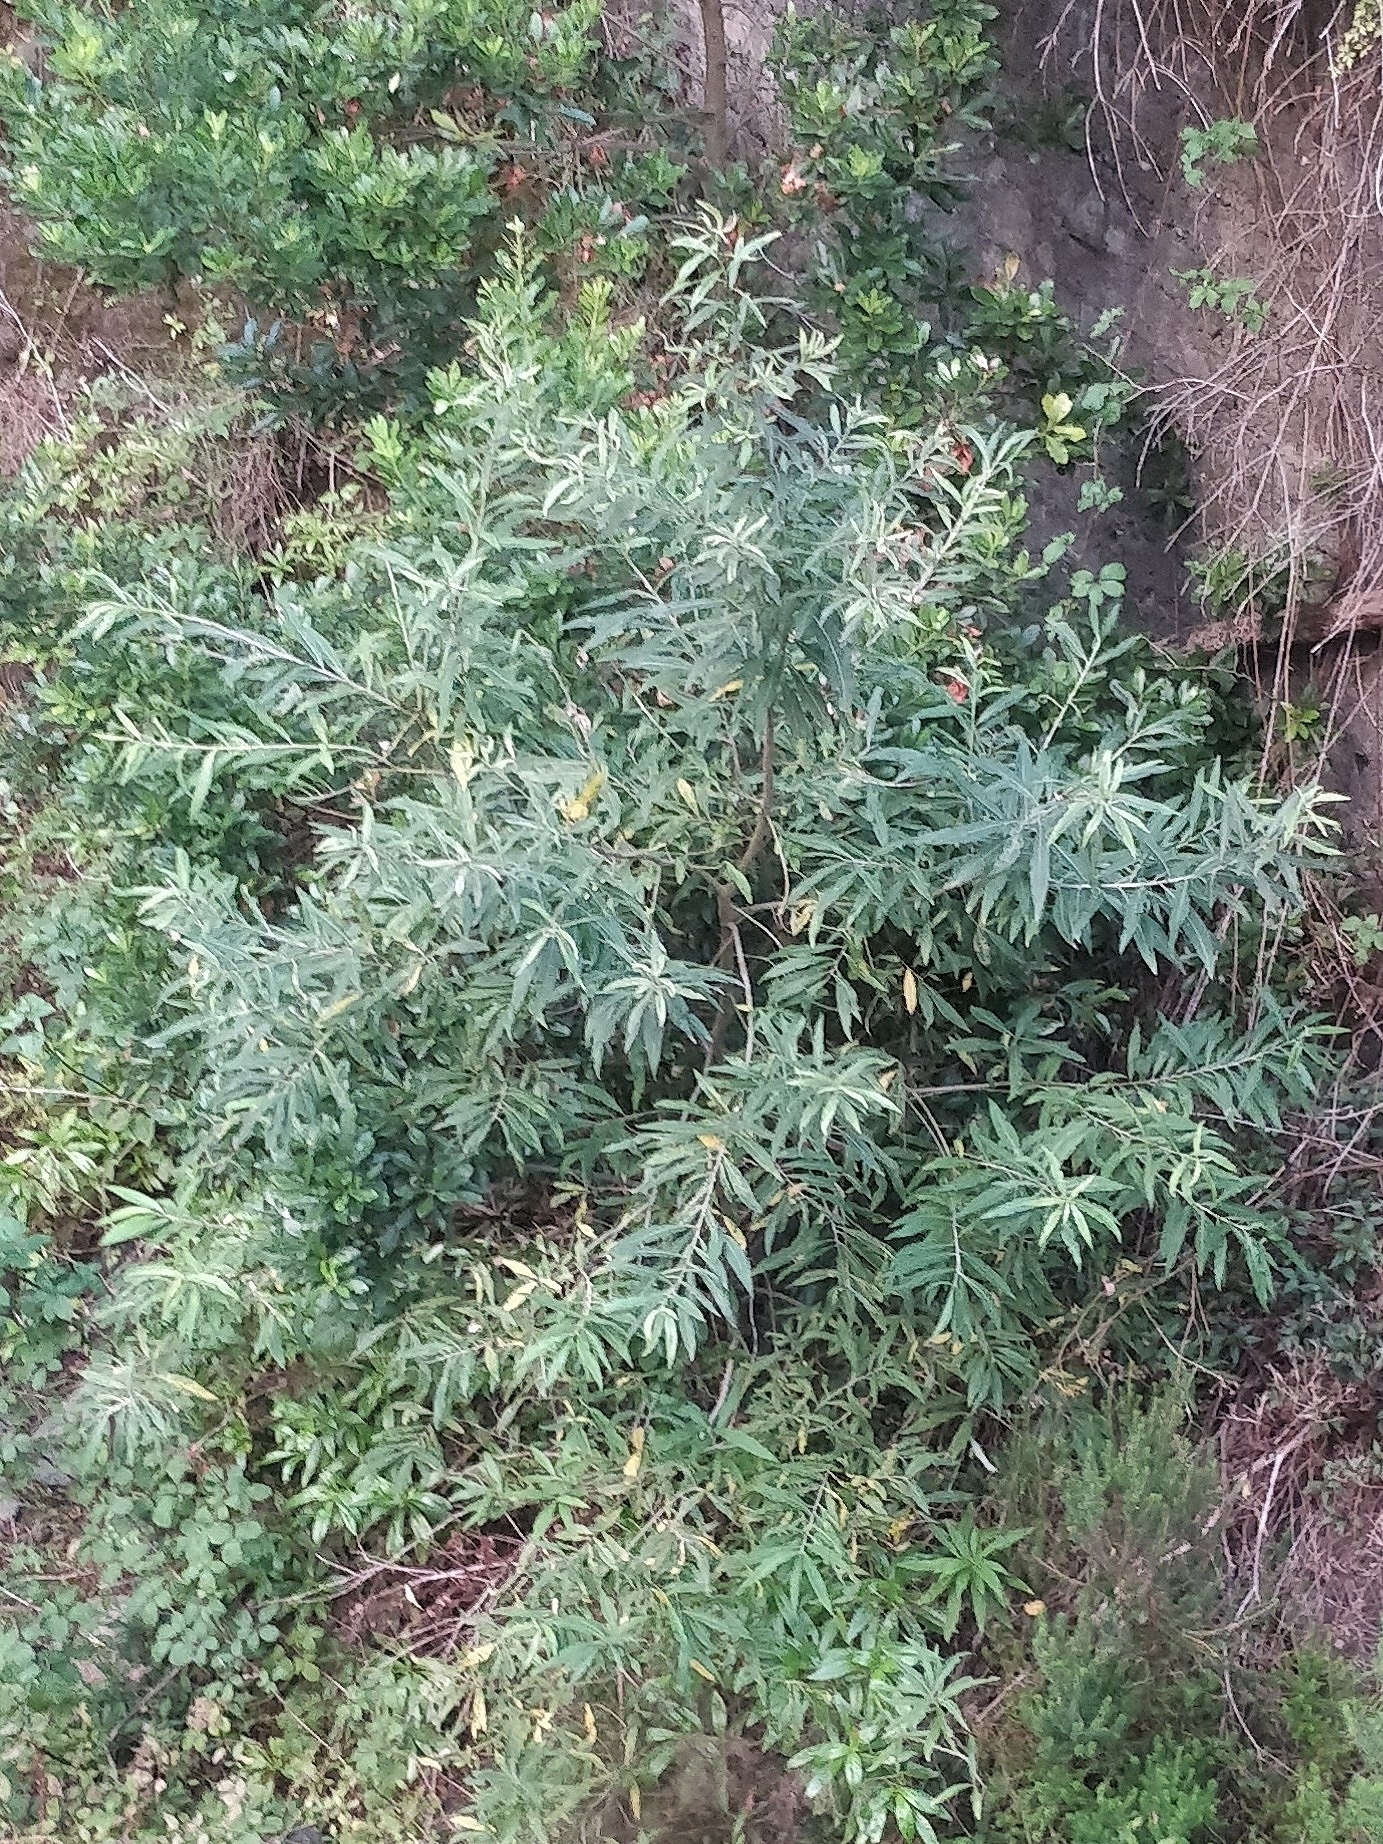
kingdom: Plantae
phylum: Tracheophyta
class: Magnoliopsida
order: Malpighiales
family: Salicaceae
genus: Salix
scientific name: Salix canariensis
